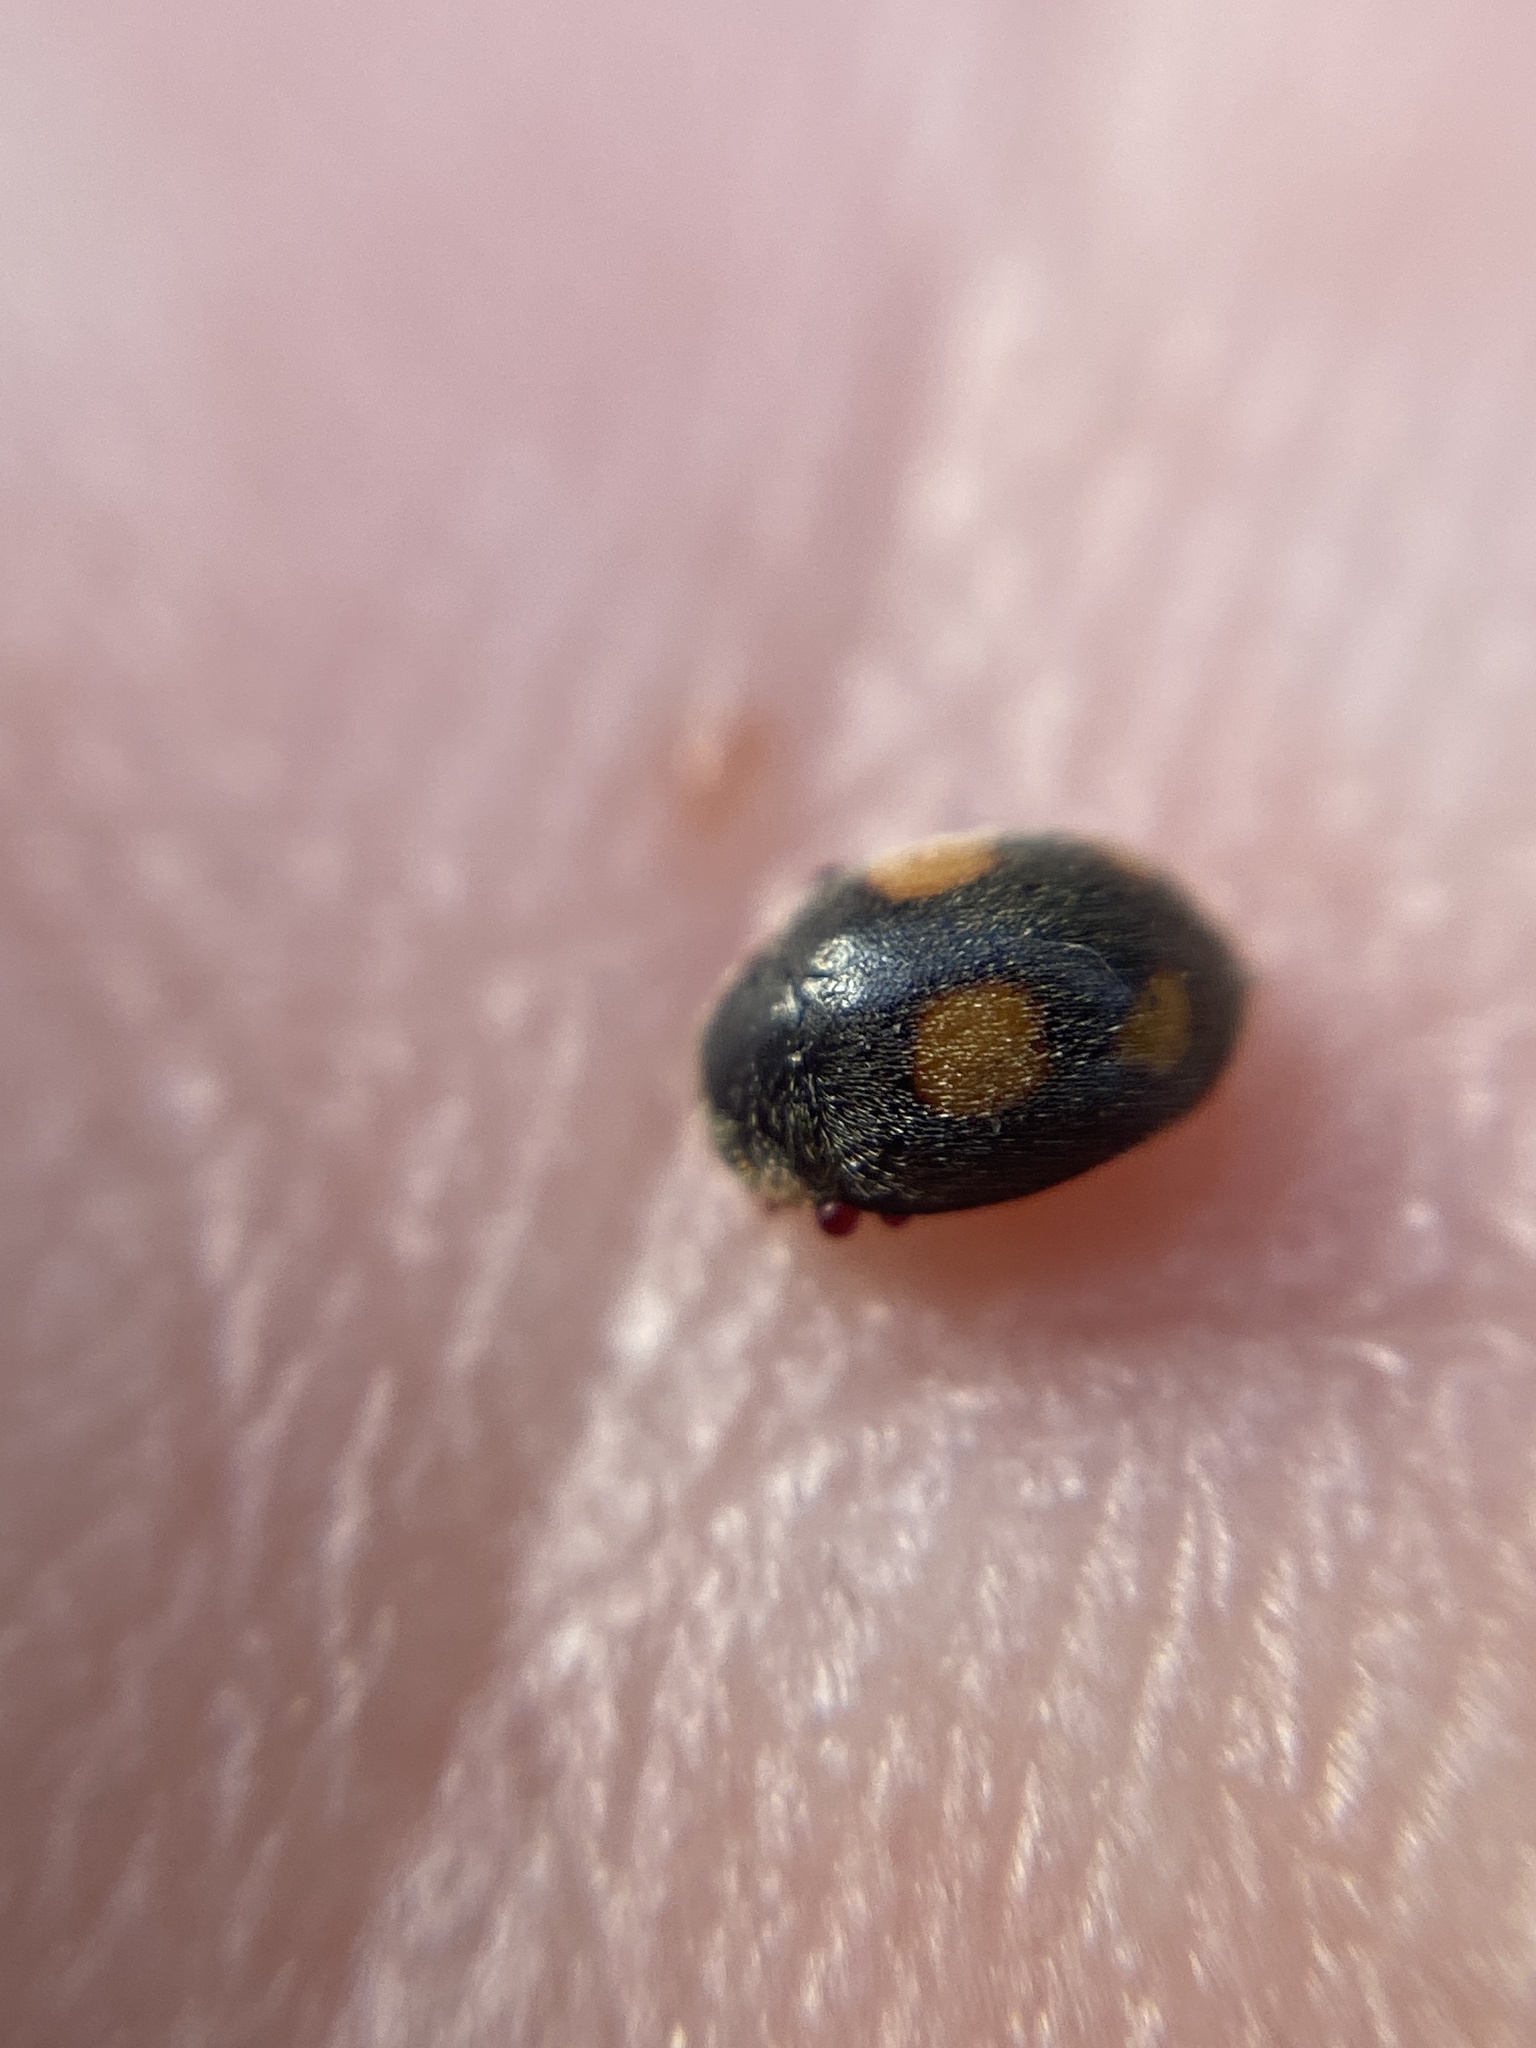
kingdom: Animalia
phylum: Arthropoda
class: Insecta
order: Coleoptera
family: Coccinellidae
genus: Platynaspis
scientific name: Platynaspis luteorubra
